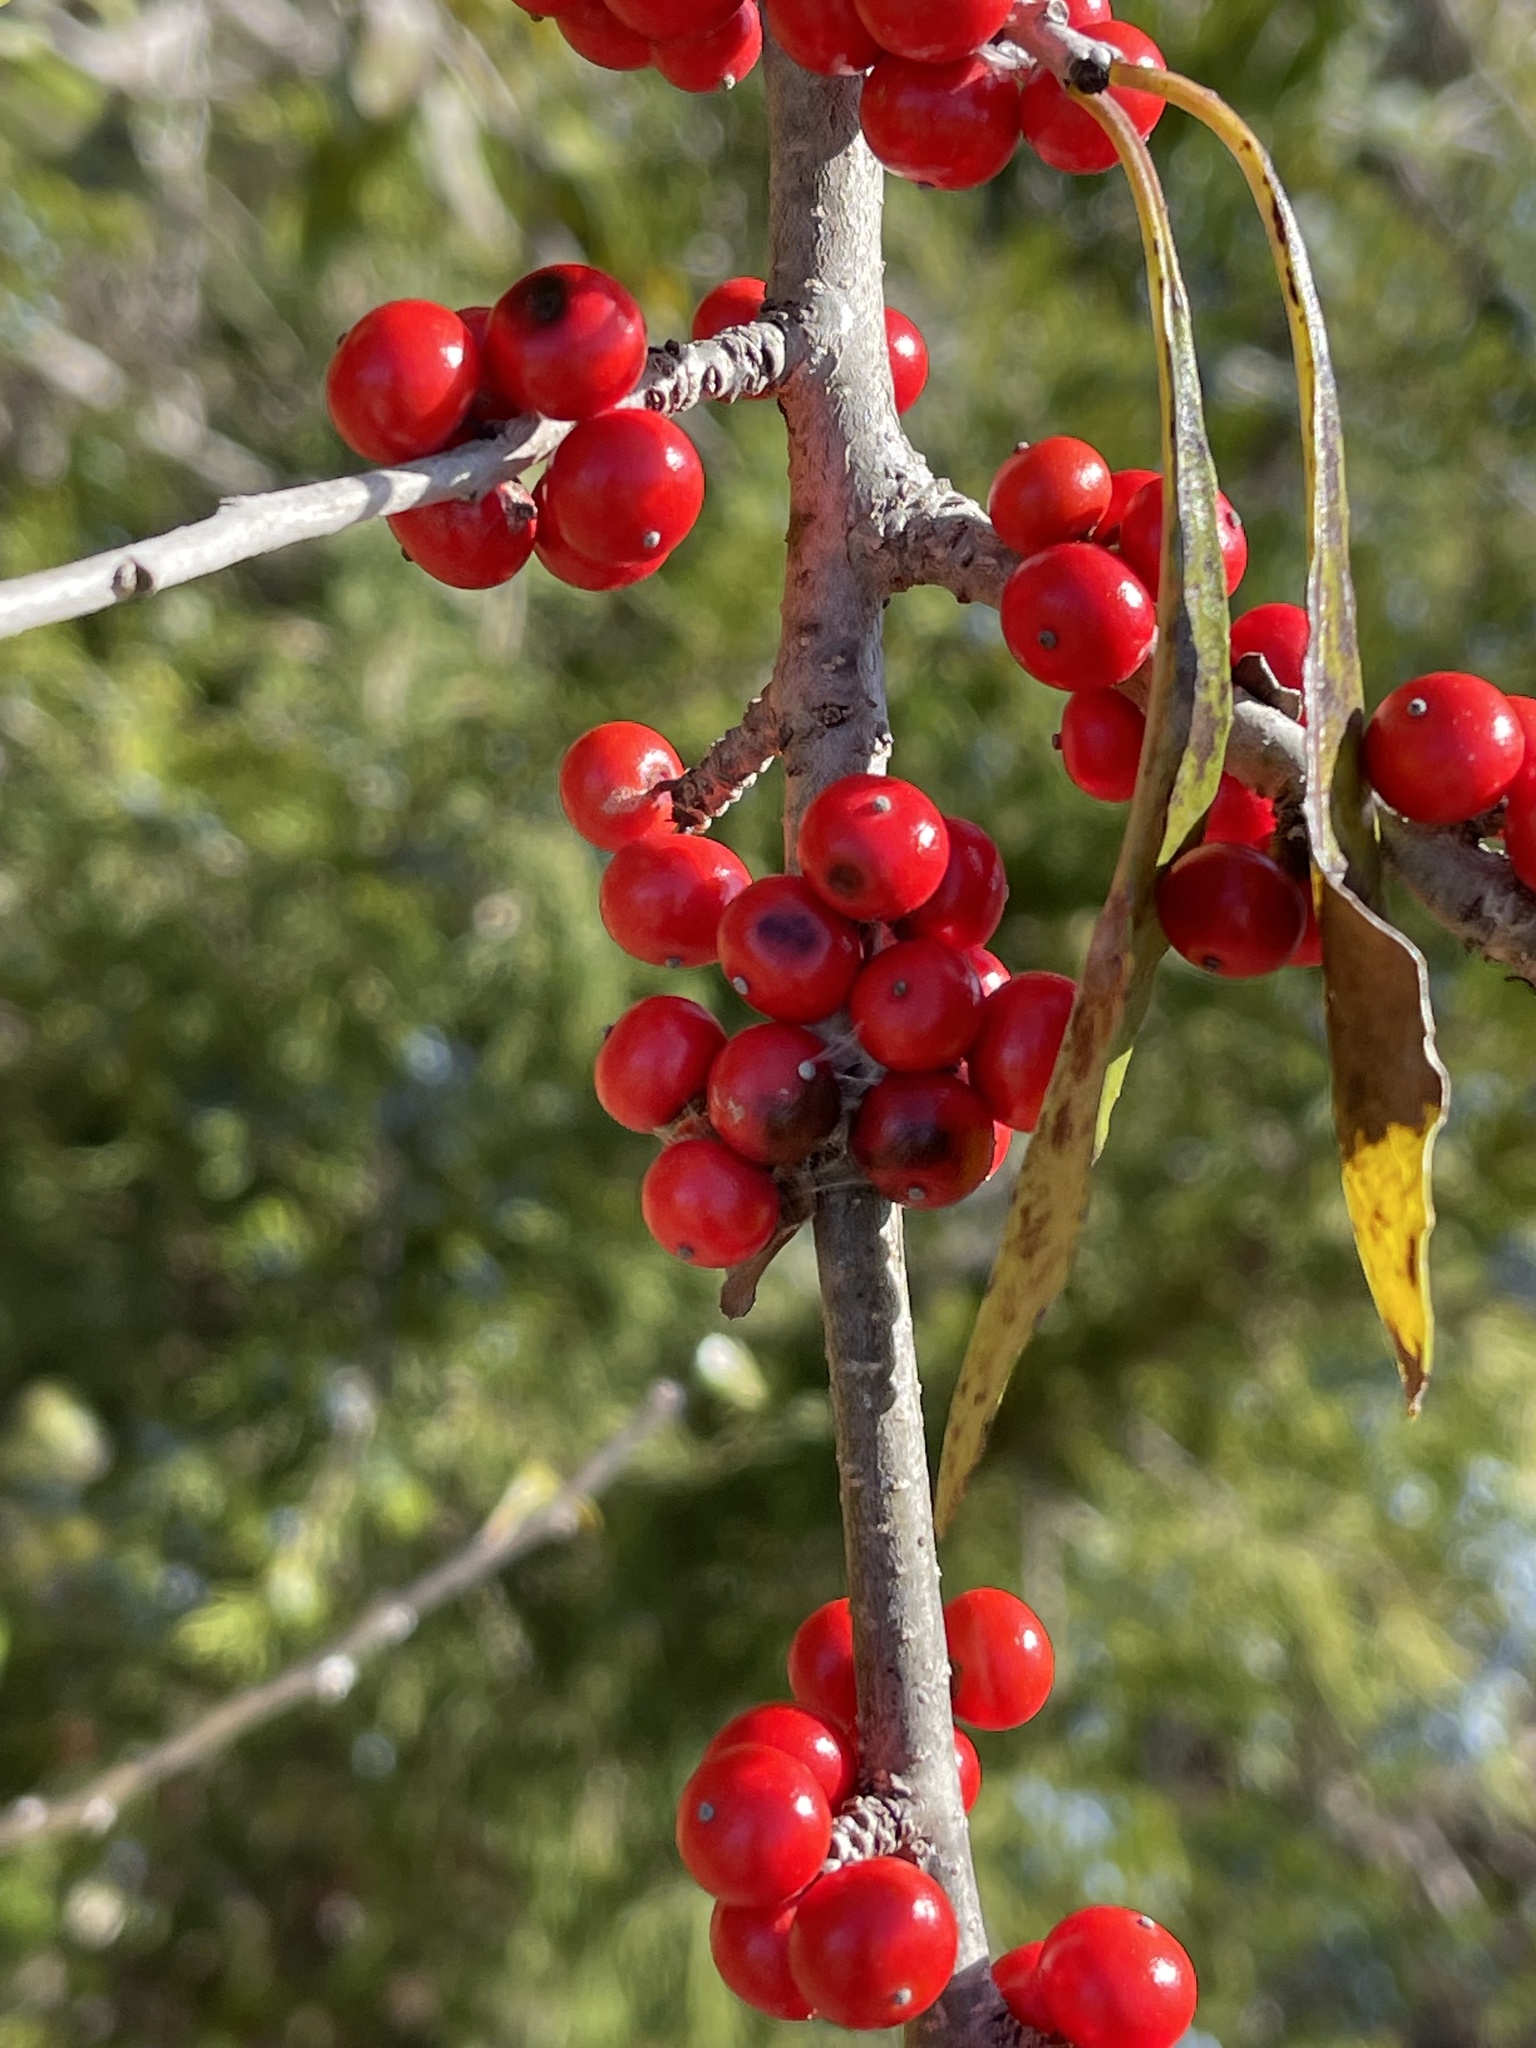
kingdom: Plantae
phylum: Tracheophyta
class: Magnoliopsida
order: Aquifoliales
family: Aquifoliaceae
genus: Ilex
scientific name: Ilex vomitoria
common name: Yaupon holly
